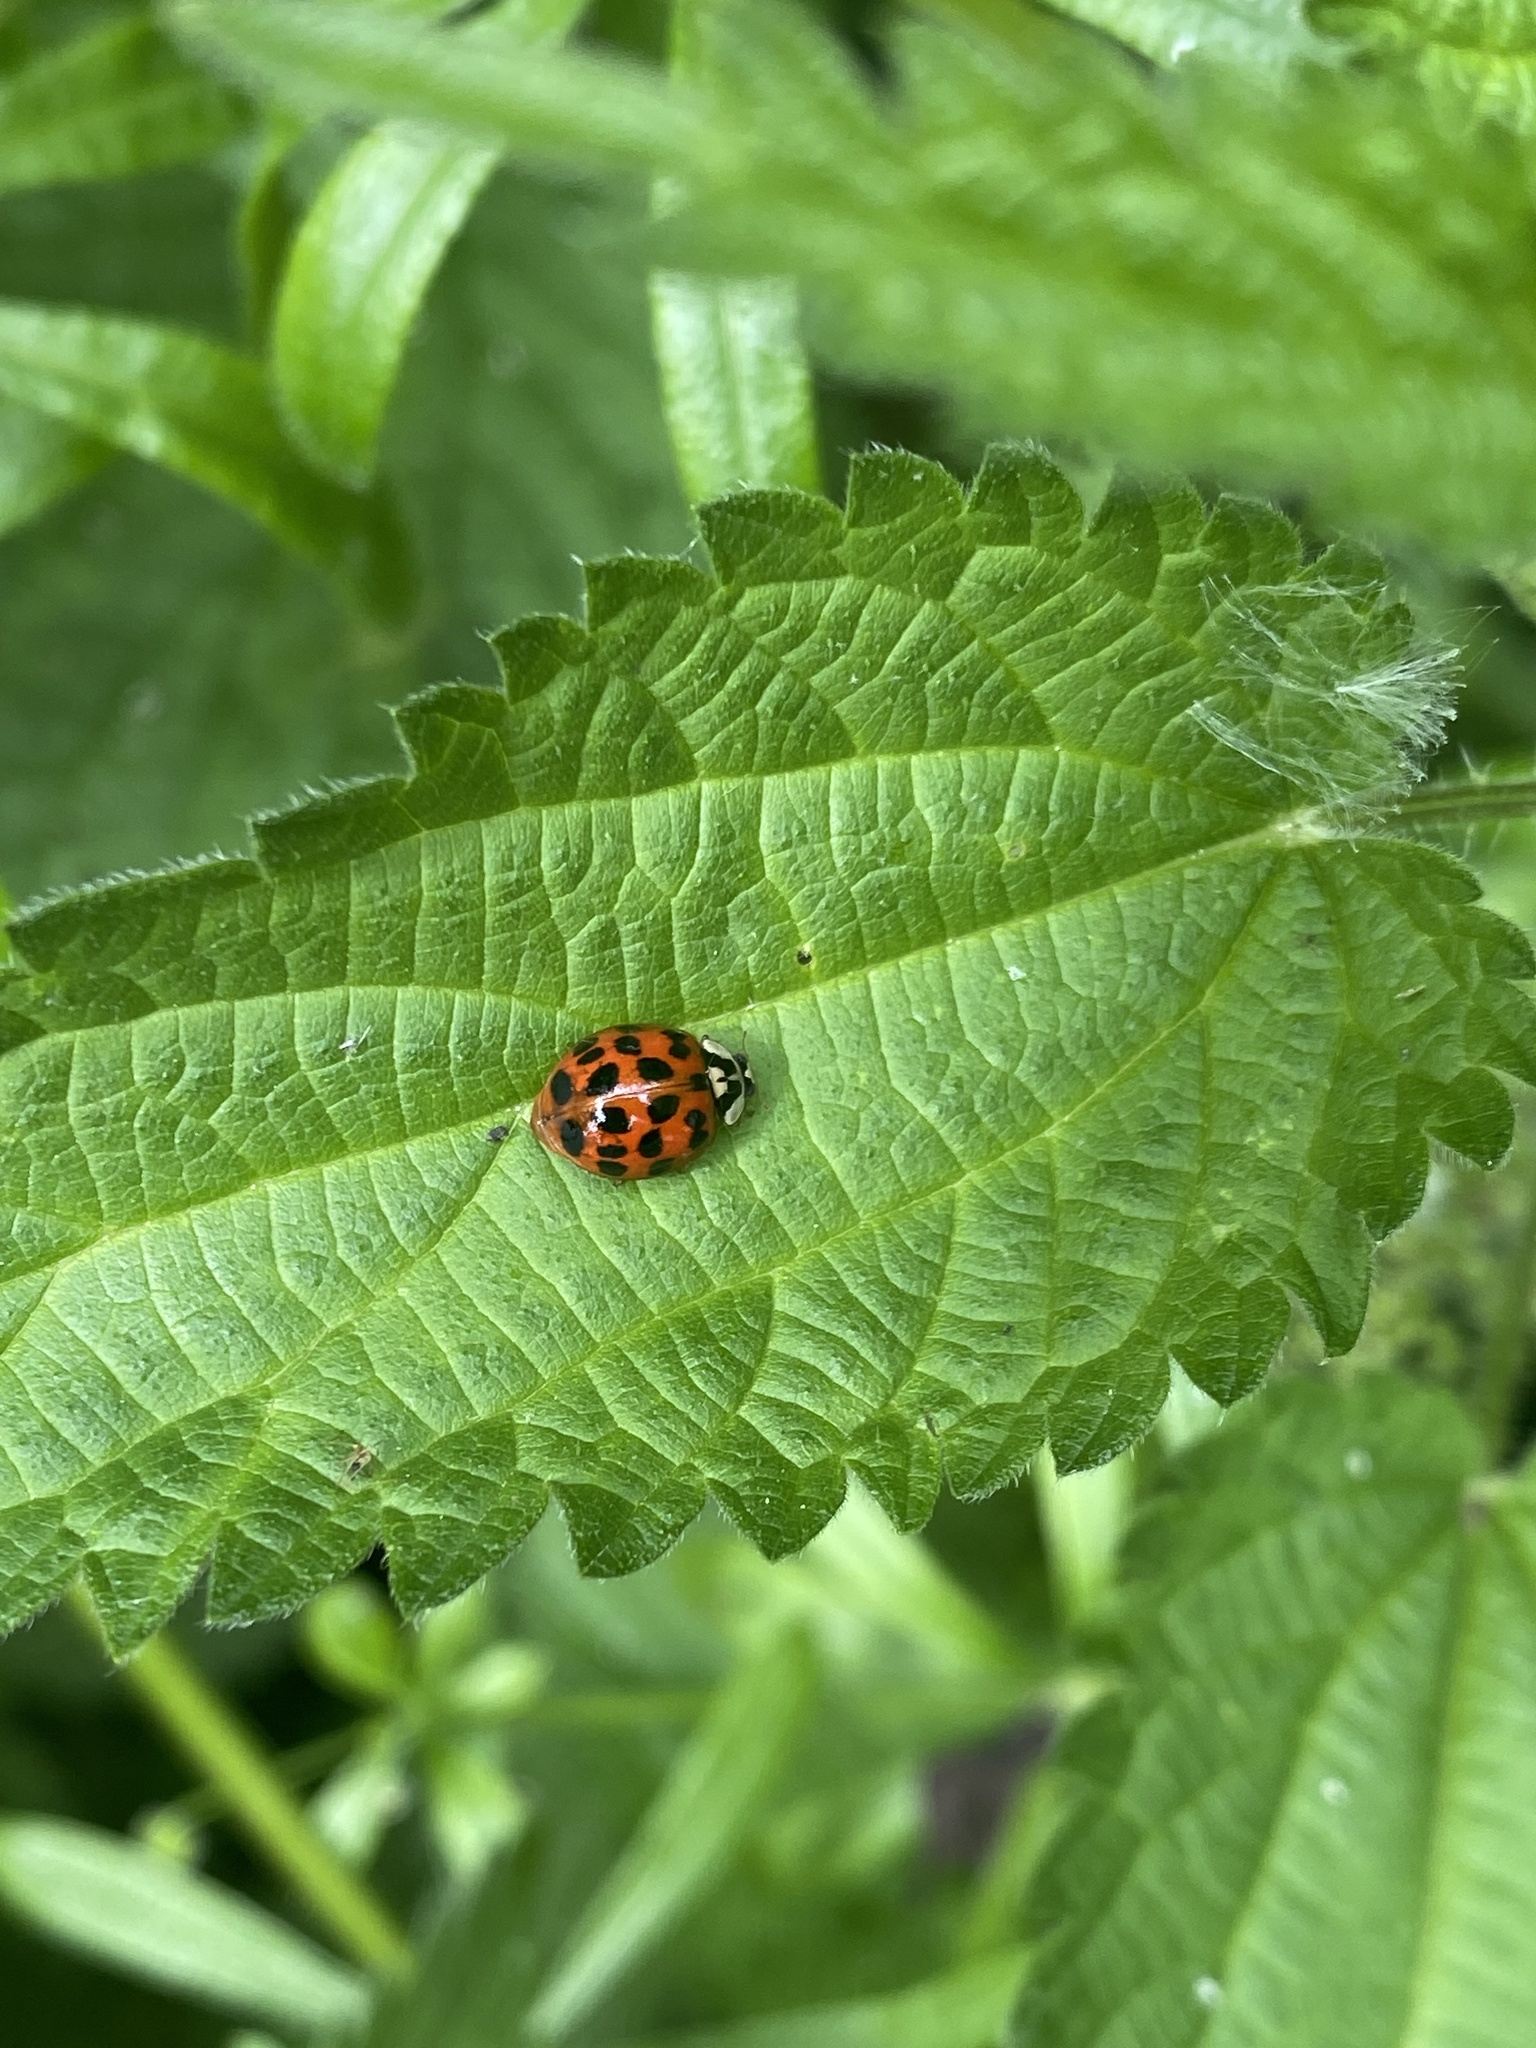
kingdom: Animalia
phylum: Arthropoda
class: Insecta
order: Coleoptera
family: Coccinellidae
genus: Harmonia
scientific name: Harmonia axyridis
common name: Harlequin ladybird
